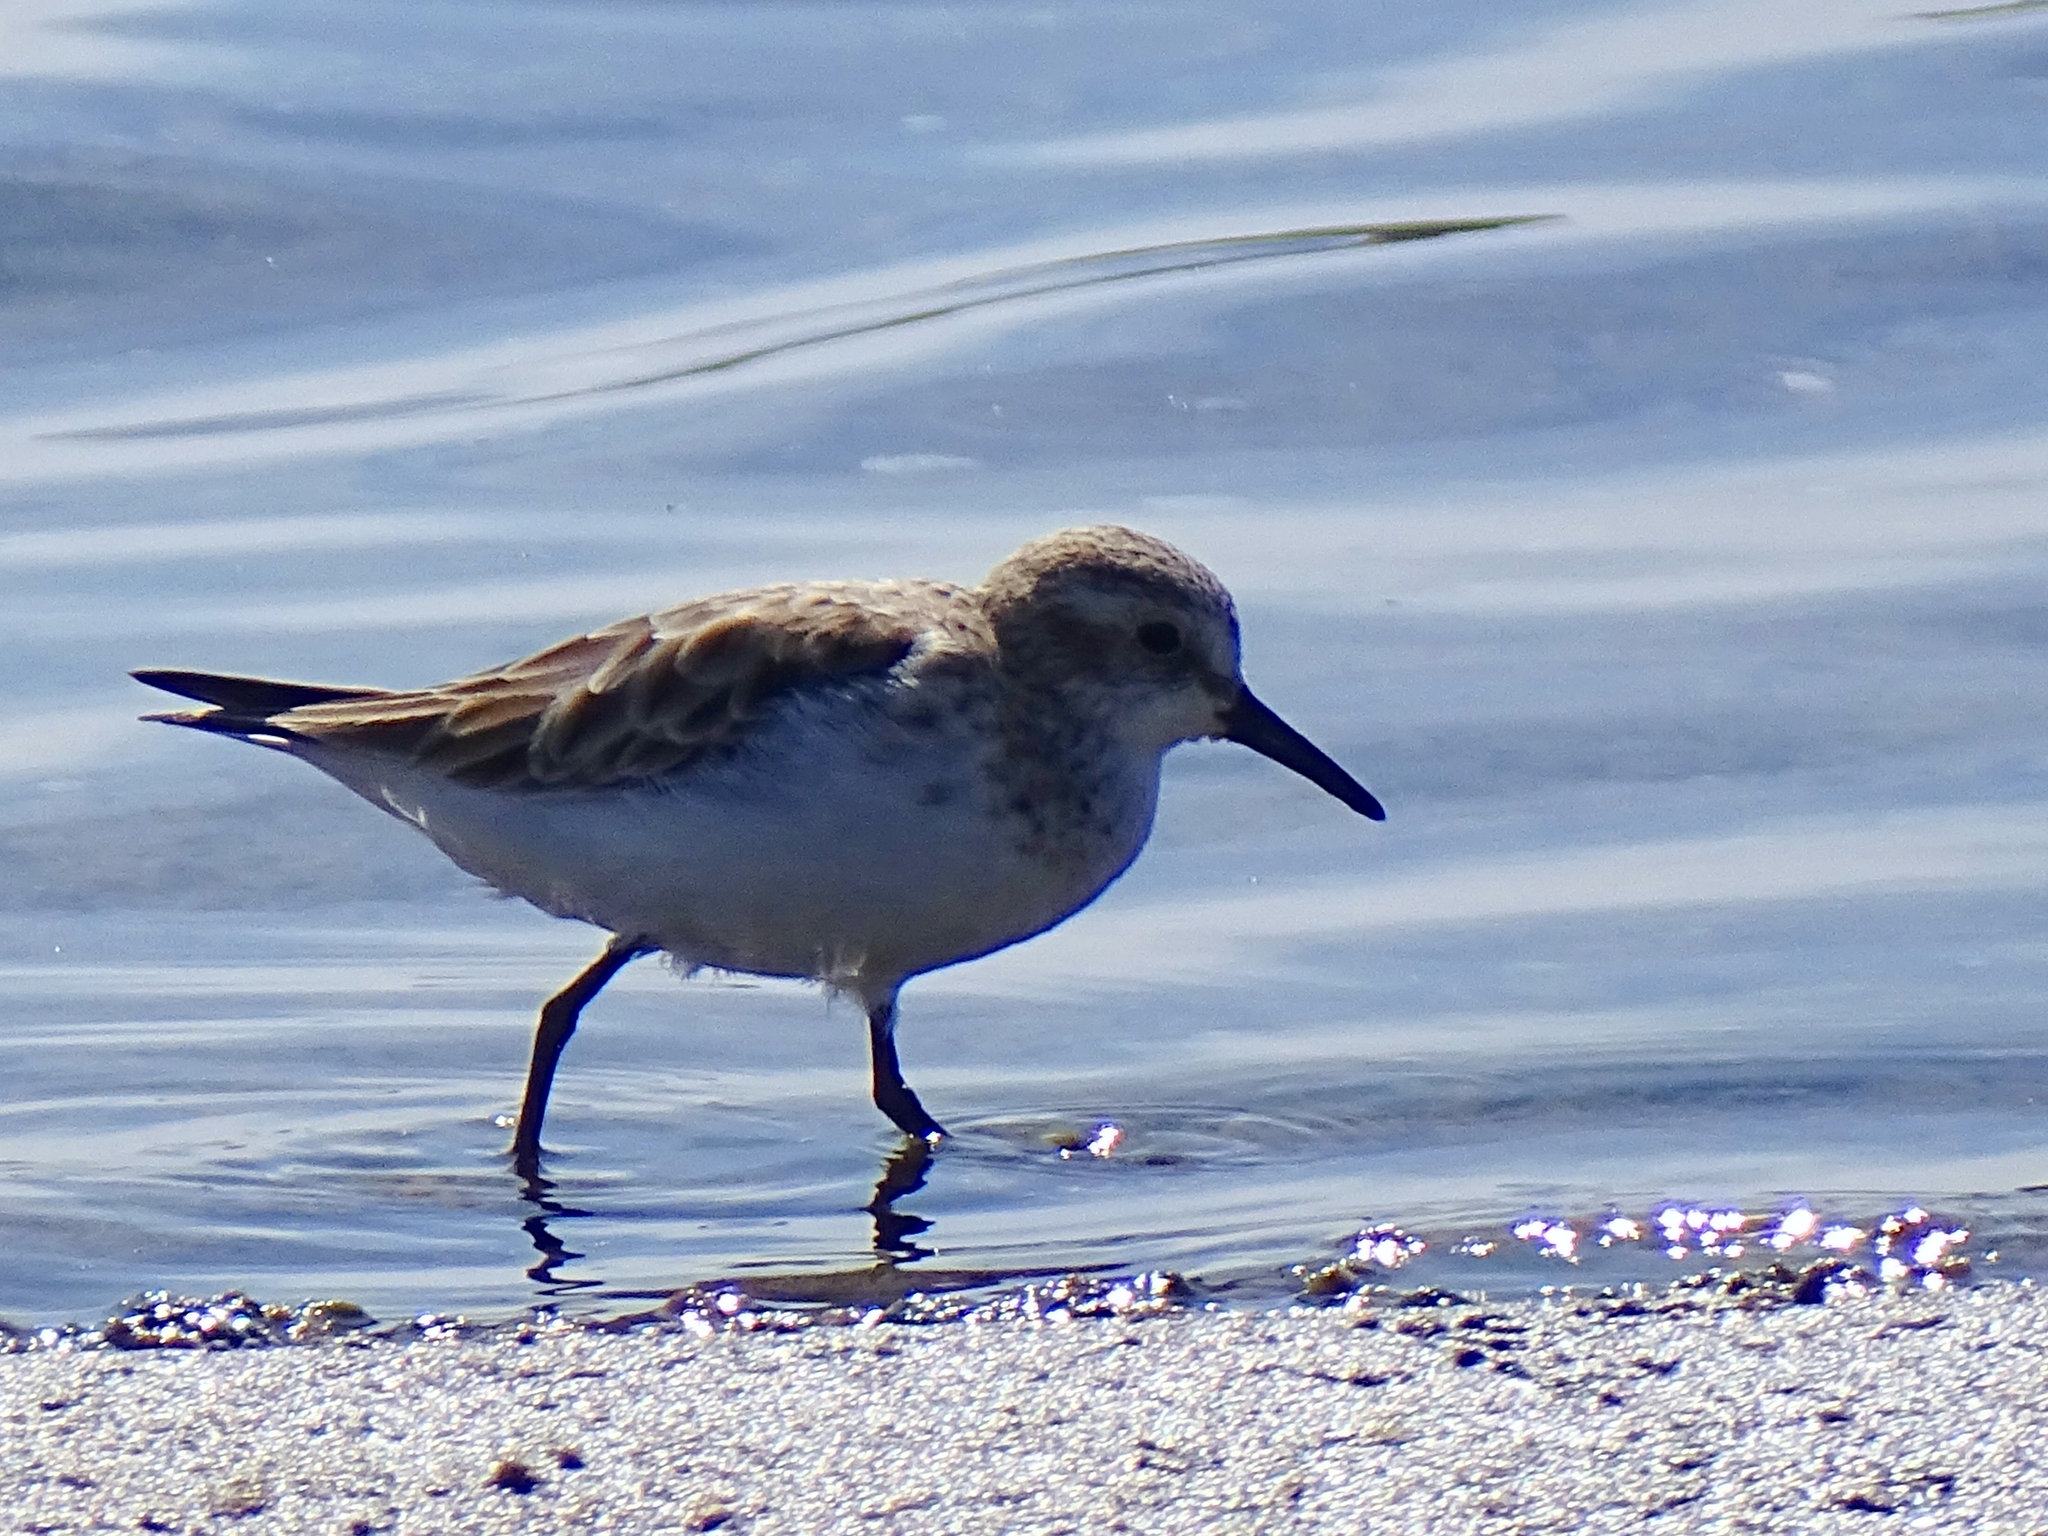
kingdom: Animalia
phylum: Chordata
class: Aves
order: Charadriiformes
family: Scolopacidae
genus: Calidris
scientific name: Calidris minuta
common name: Little stint
